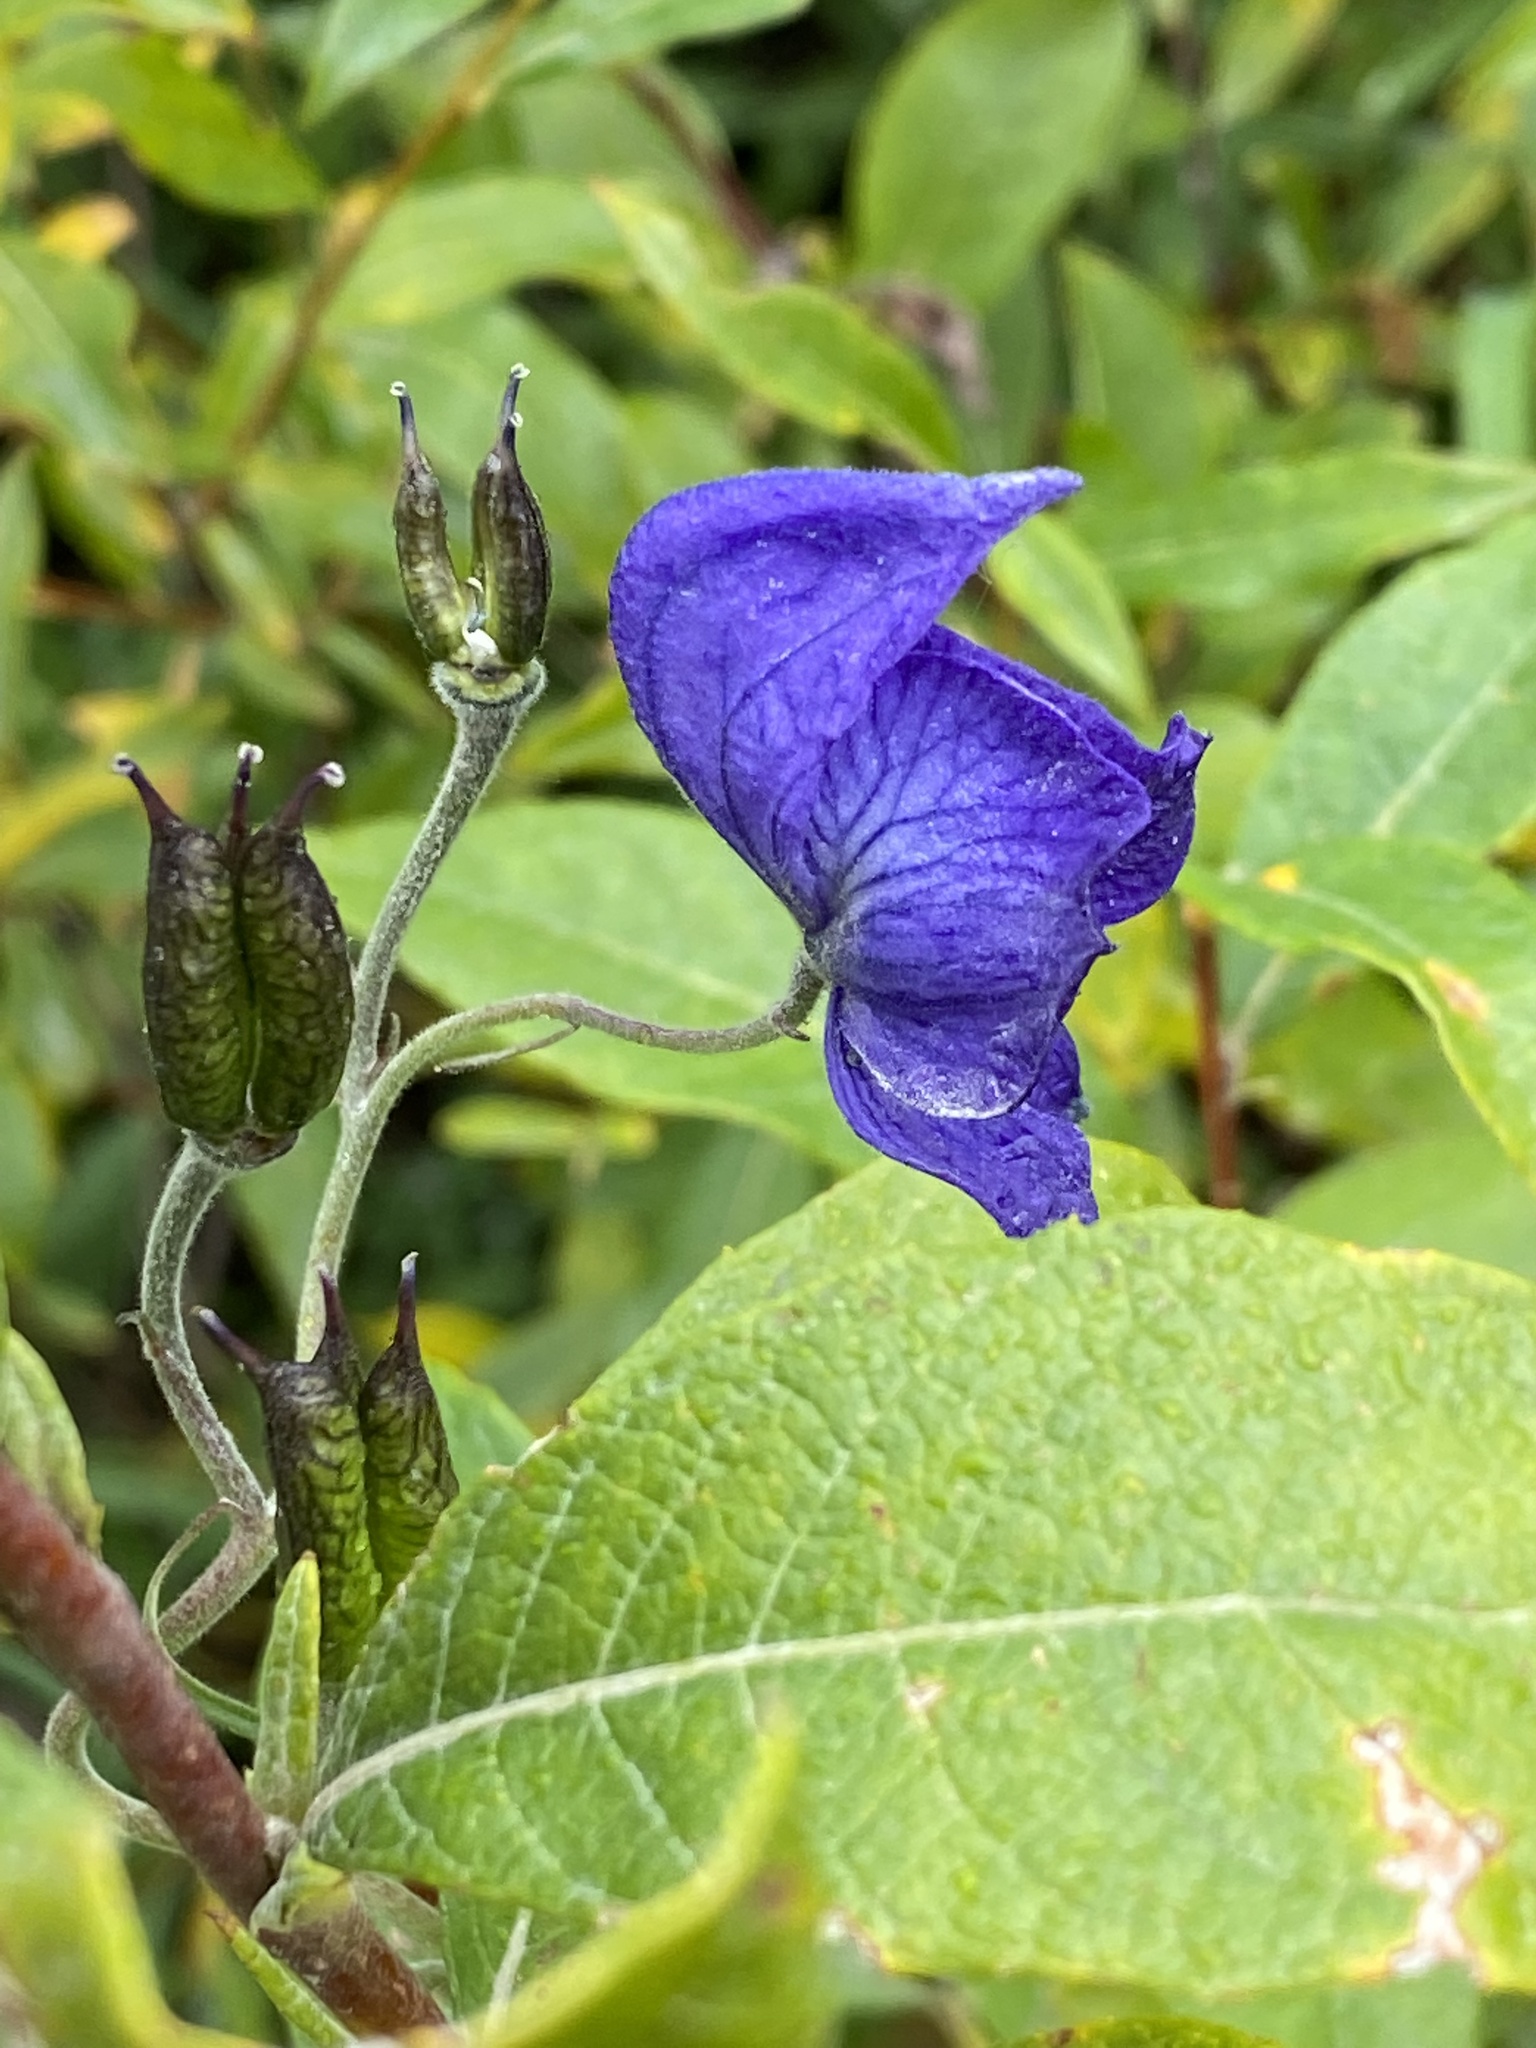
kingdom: Plantae
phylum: Tracheophyta
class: Magnoliopsida
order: Ranunculales
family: Ranunculaceae
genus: Aconitum
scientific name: Aconitum delphiniifolium
